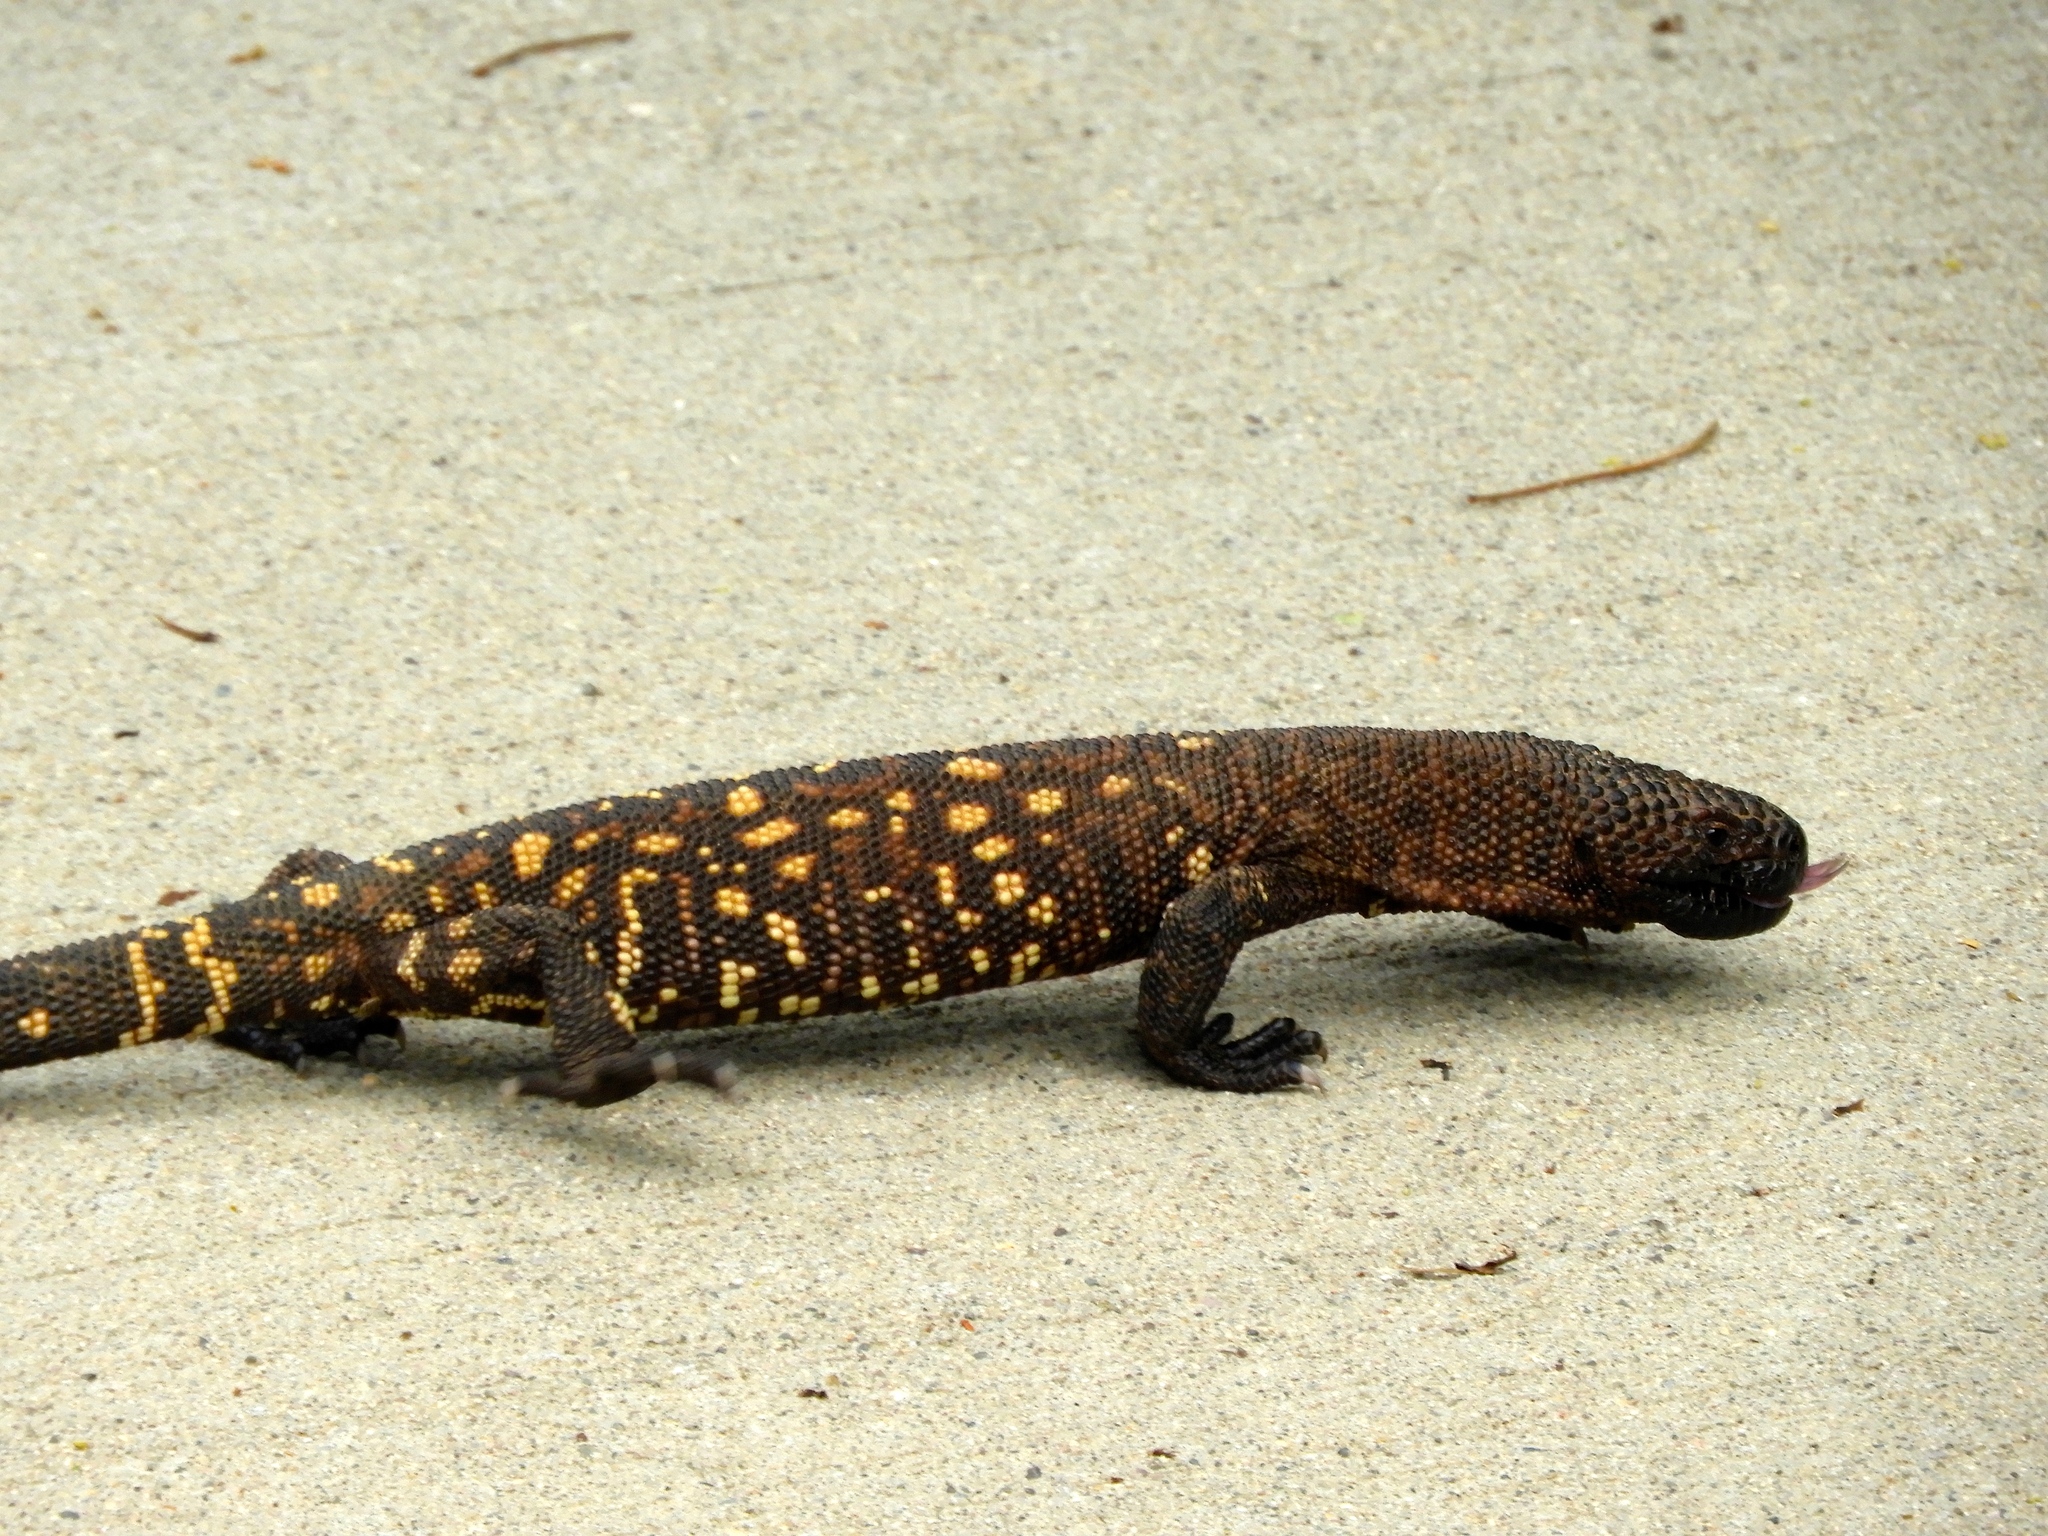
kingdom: Animalia
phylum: Chordata
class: Squamata
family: Helodermatidae
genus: Heloderma
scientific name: Heloderma horridum
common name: Mexican beaded lizard
